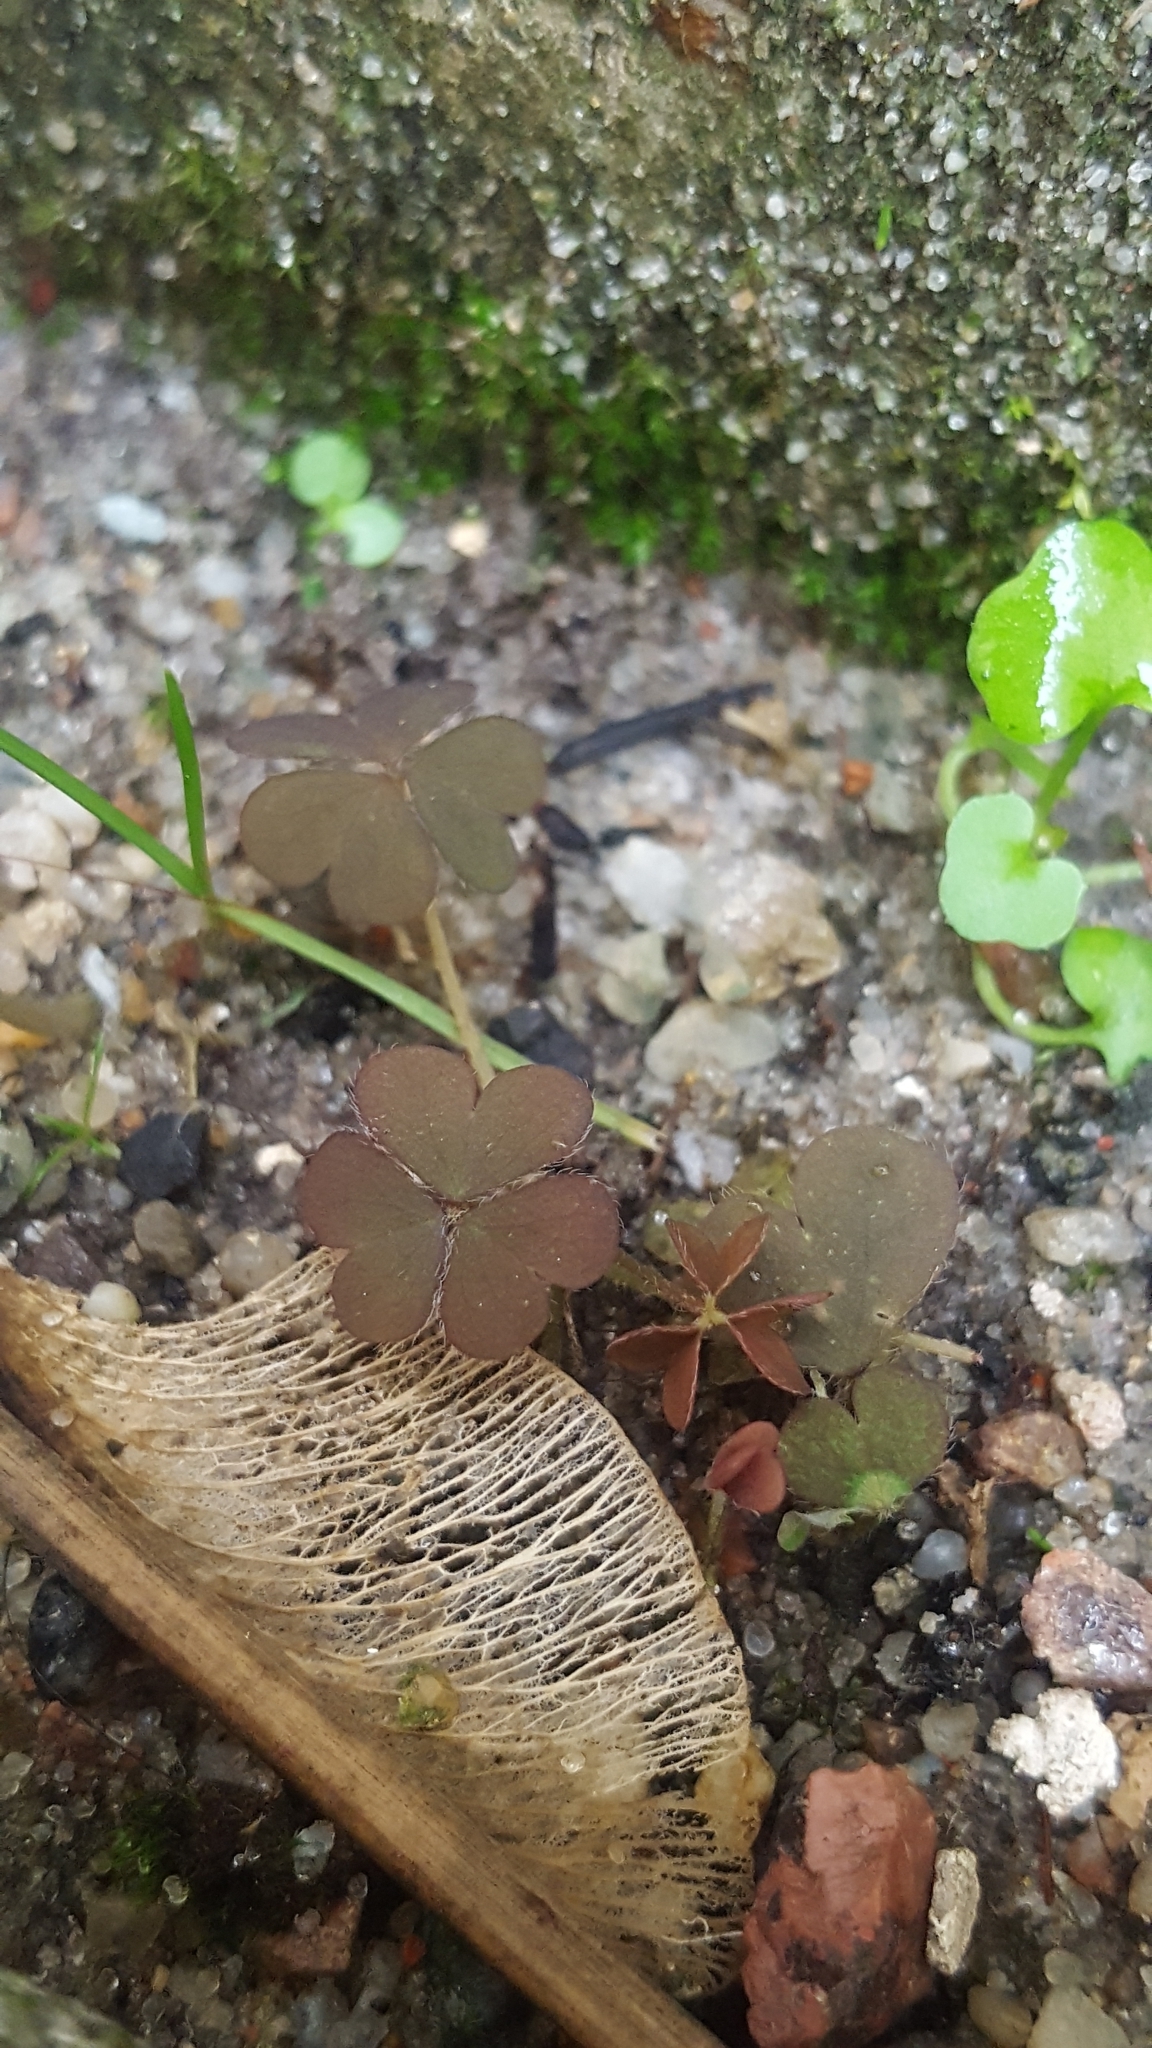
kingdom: Plantae
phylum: Tracheophyta
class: Magnoliopsida
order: Oxalidales
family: Oxalidaceae
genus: Oxalis
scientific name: Oxalis corniculata
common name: Procumbent yellow-sorrel
